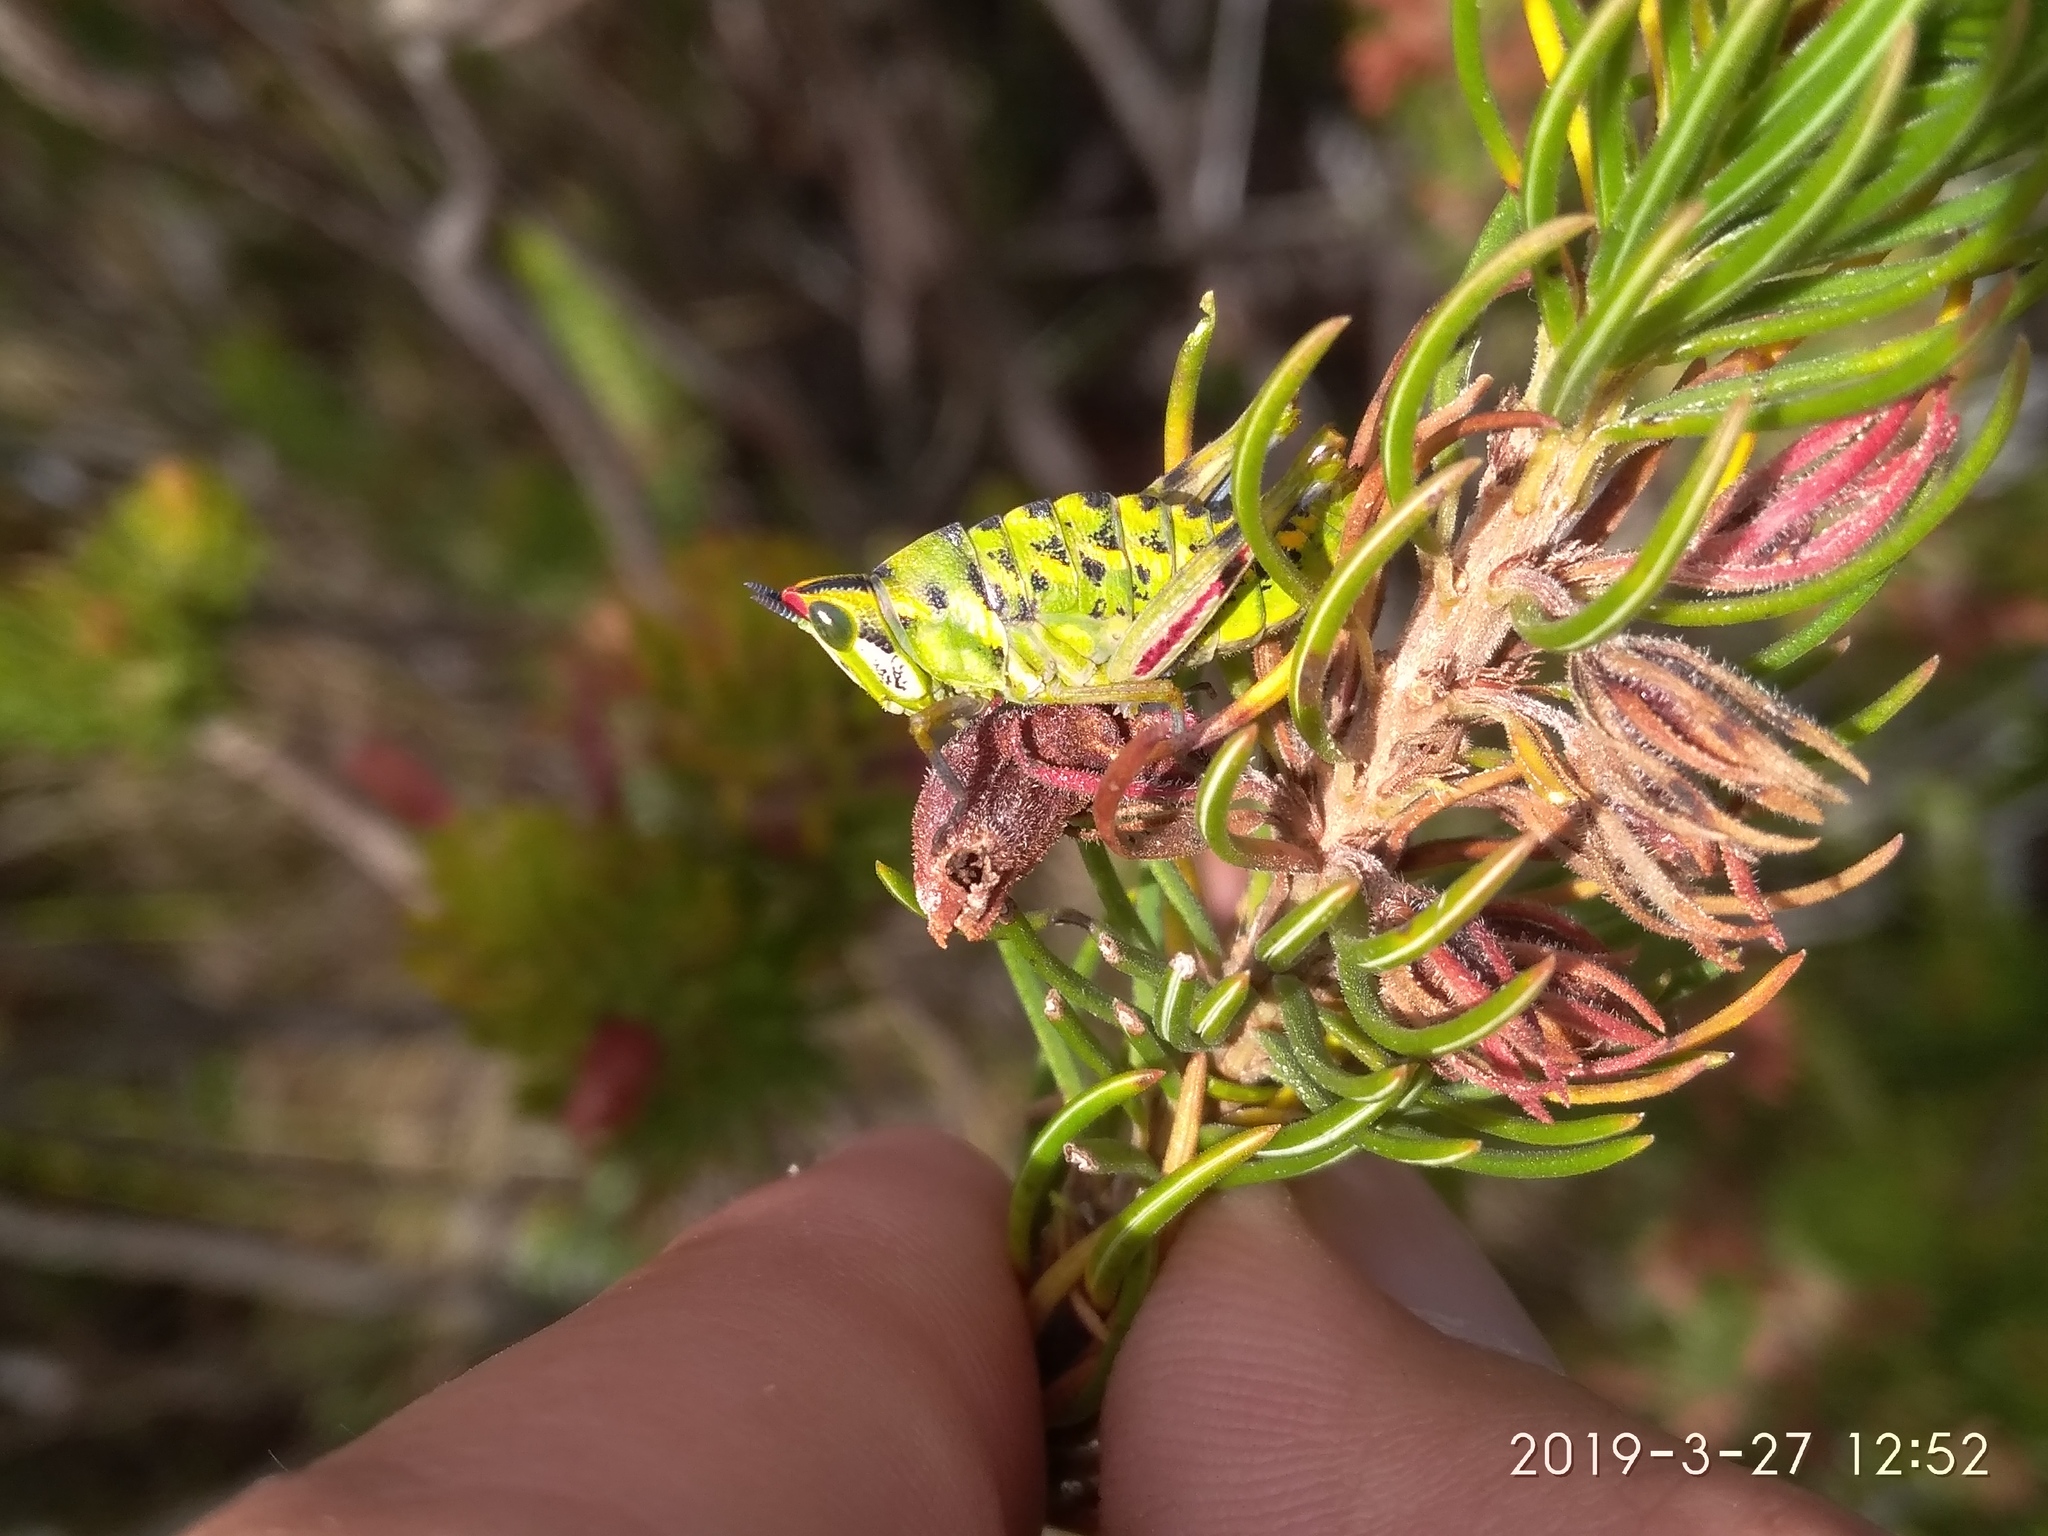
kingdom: Animalia
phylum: Arthropoda
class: Insecta
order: Orthoptera
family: Thericleidae
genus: Thericlesiella
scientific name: Thericlesiella meridionalis
